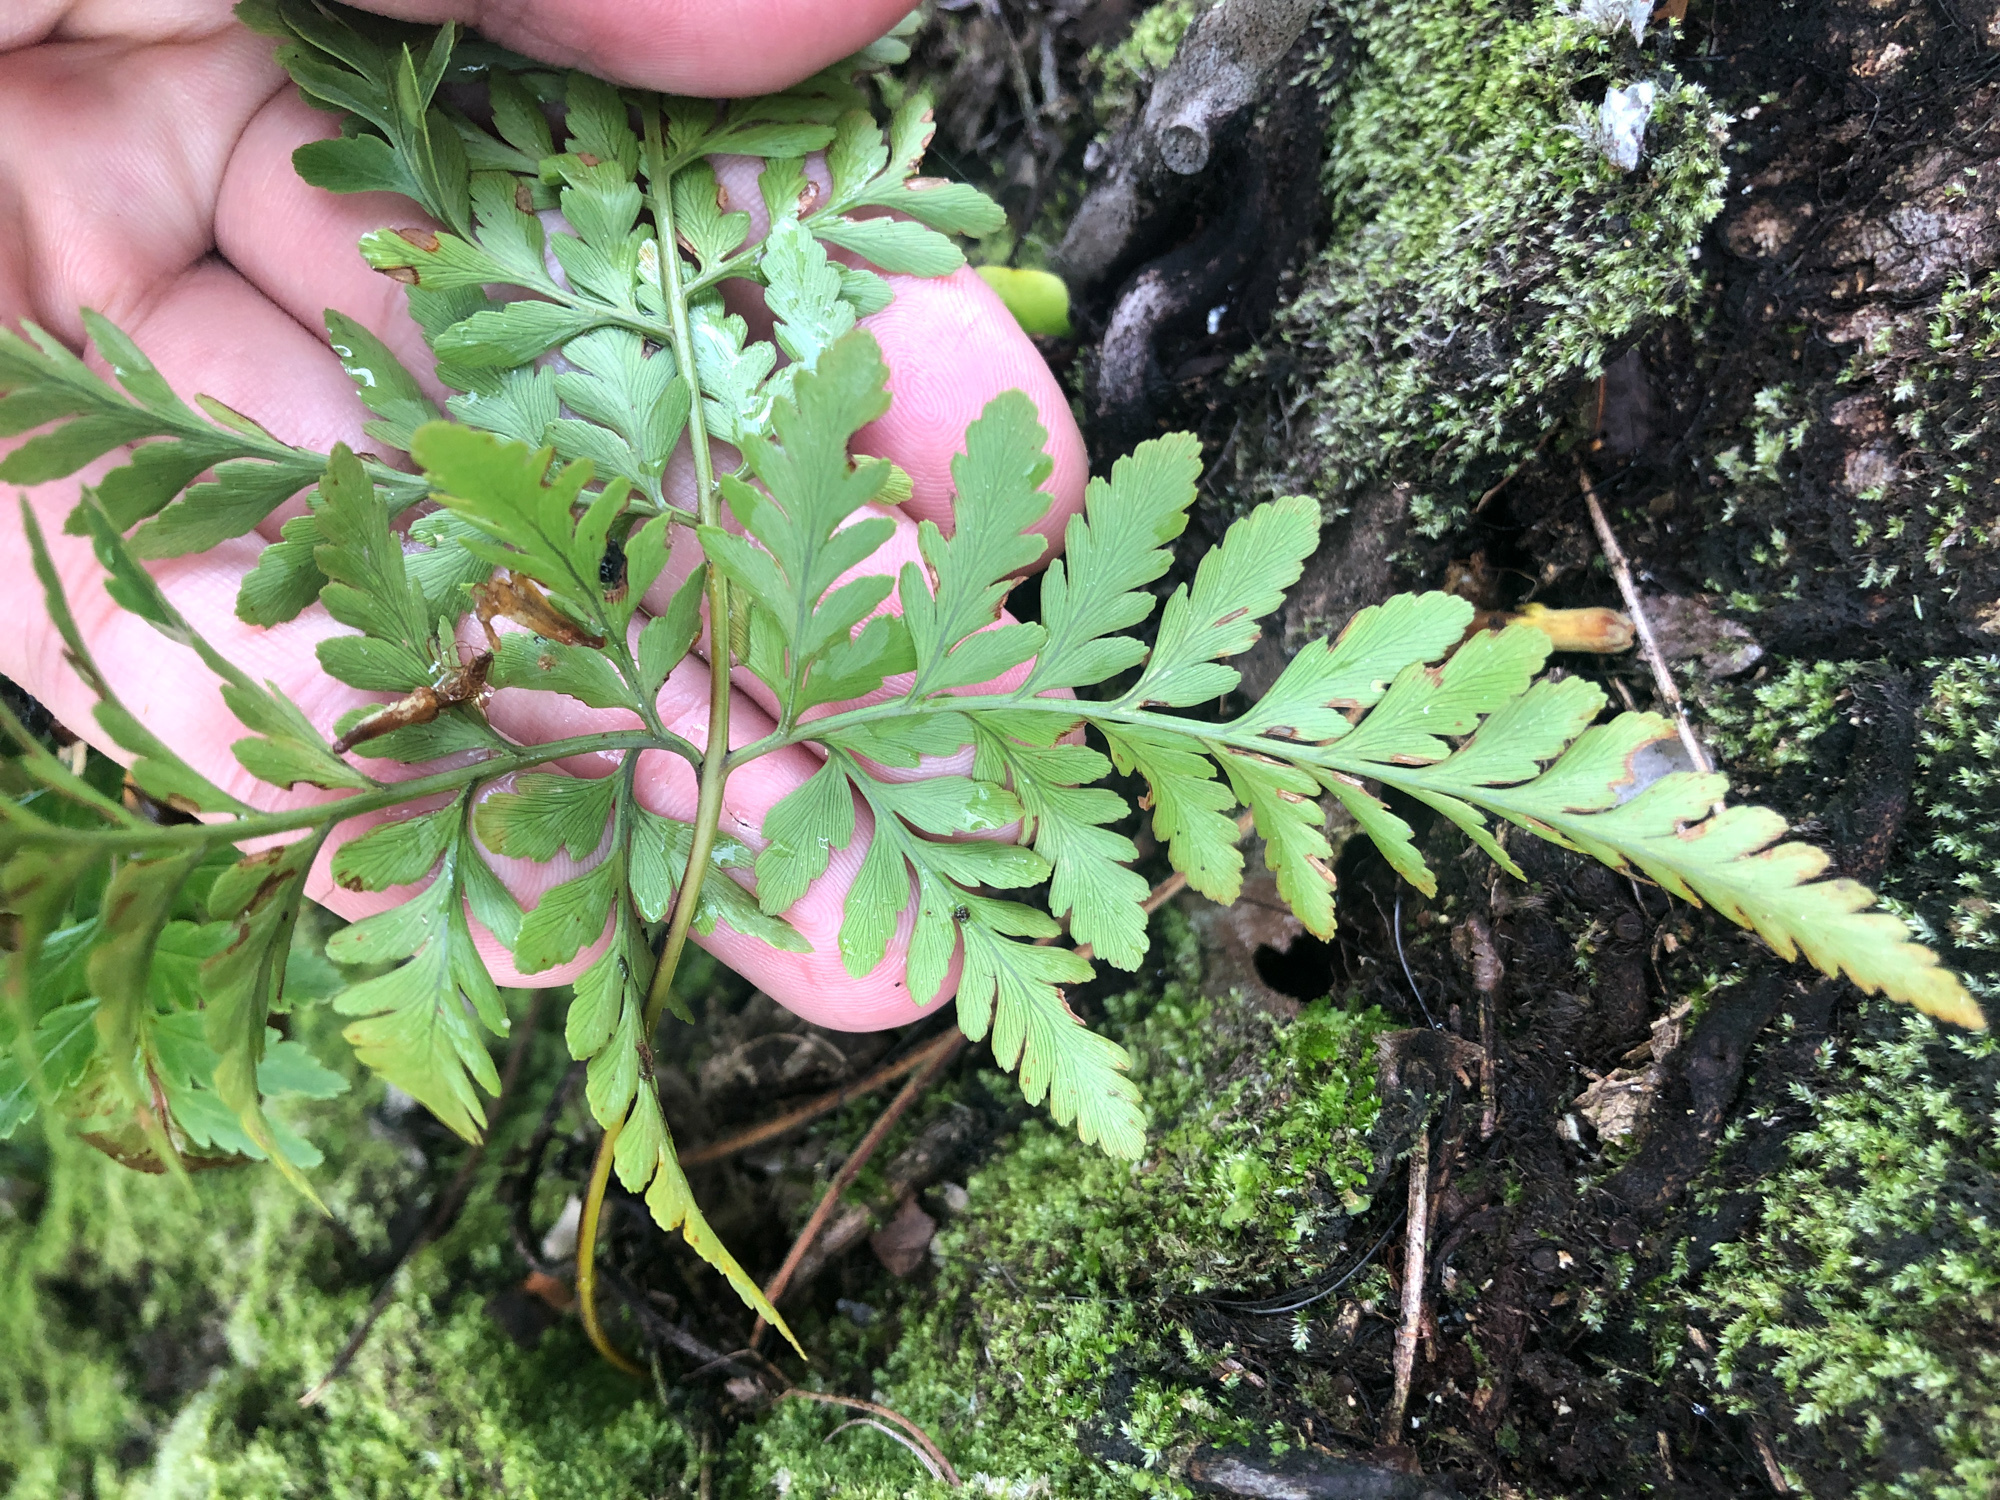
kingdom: Plantae
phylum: Tracheophyta
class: Polypodiopsida
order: Polypodiales
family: Davalliaceae
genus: Davallia
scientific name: Davallia denticulata
